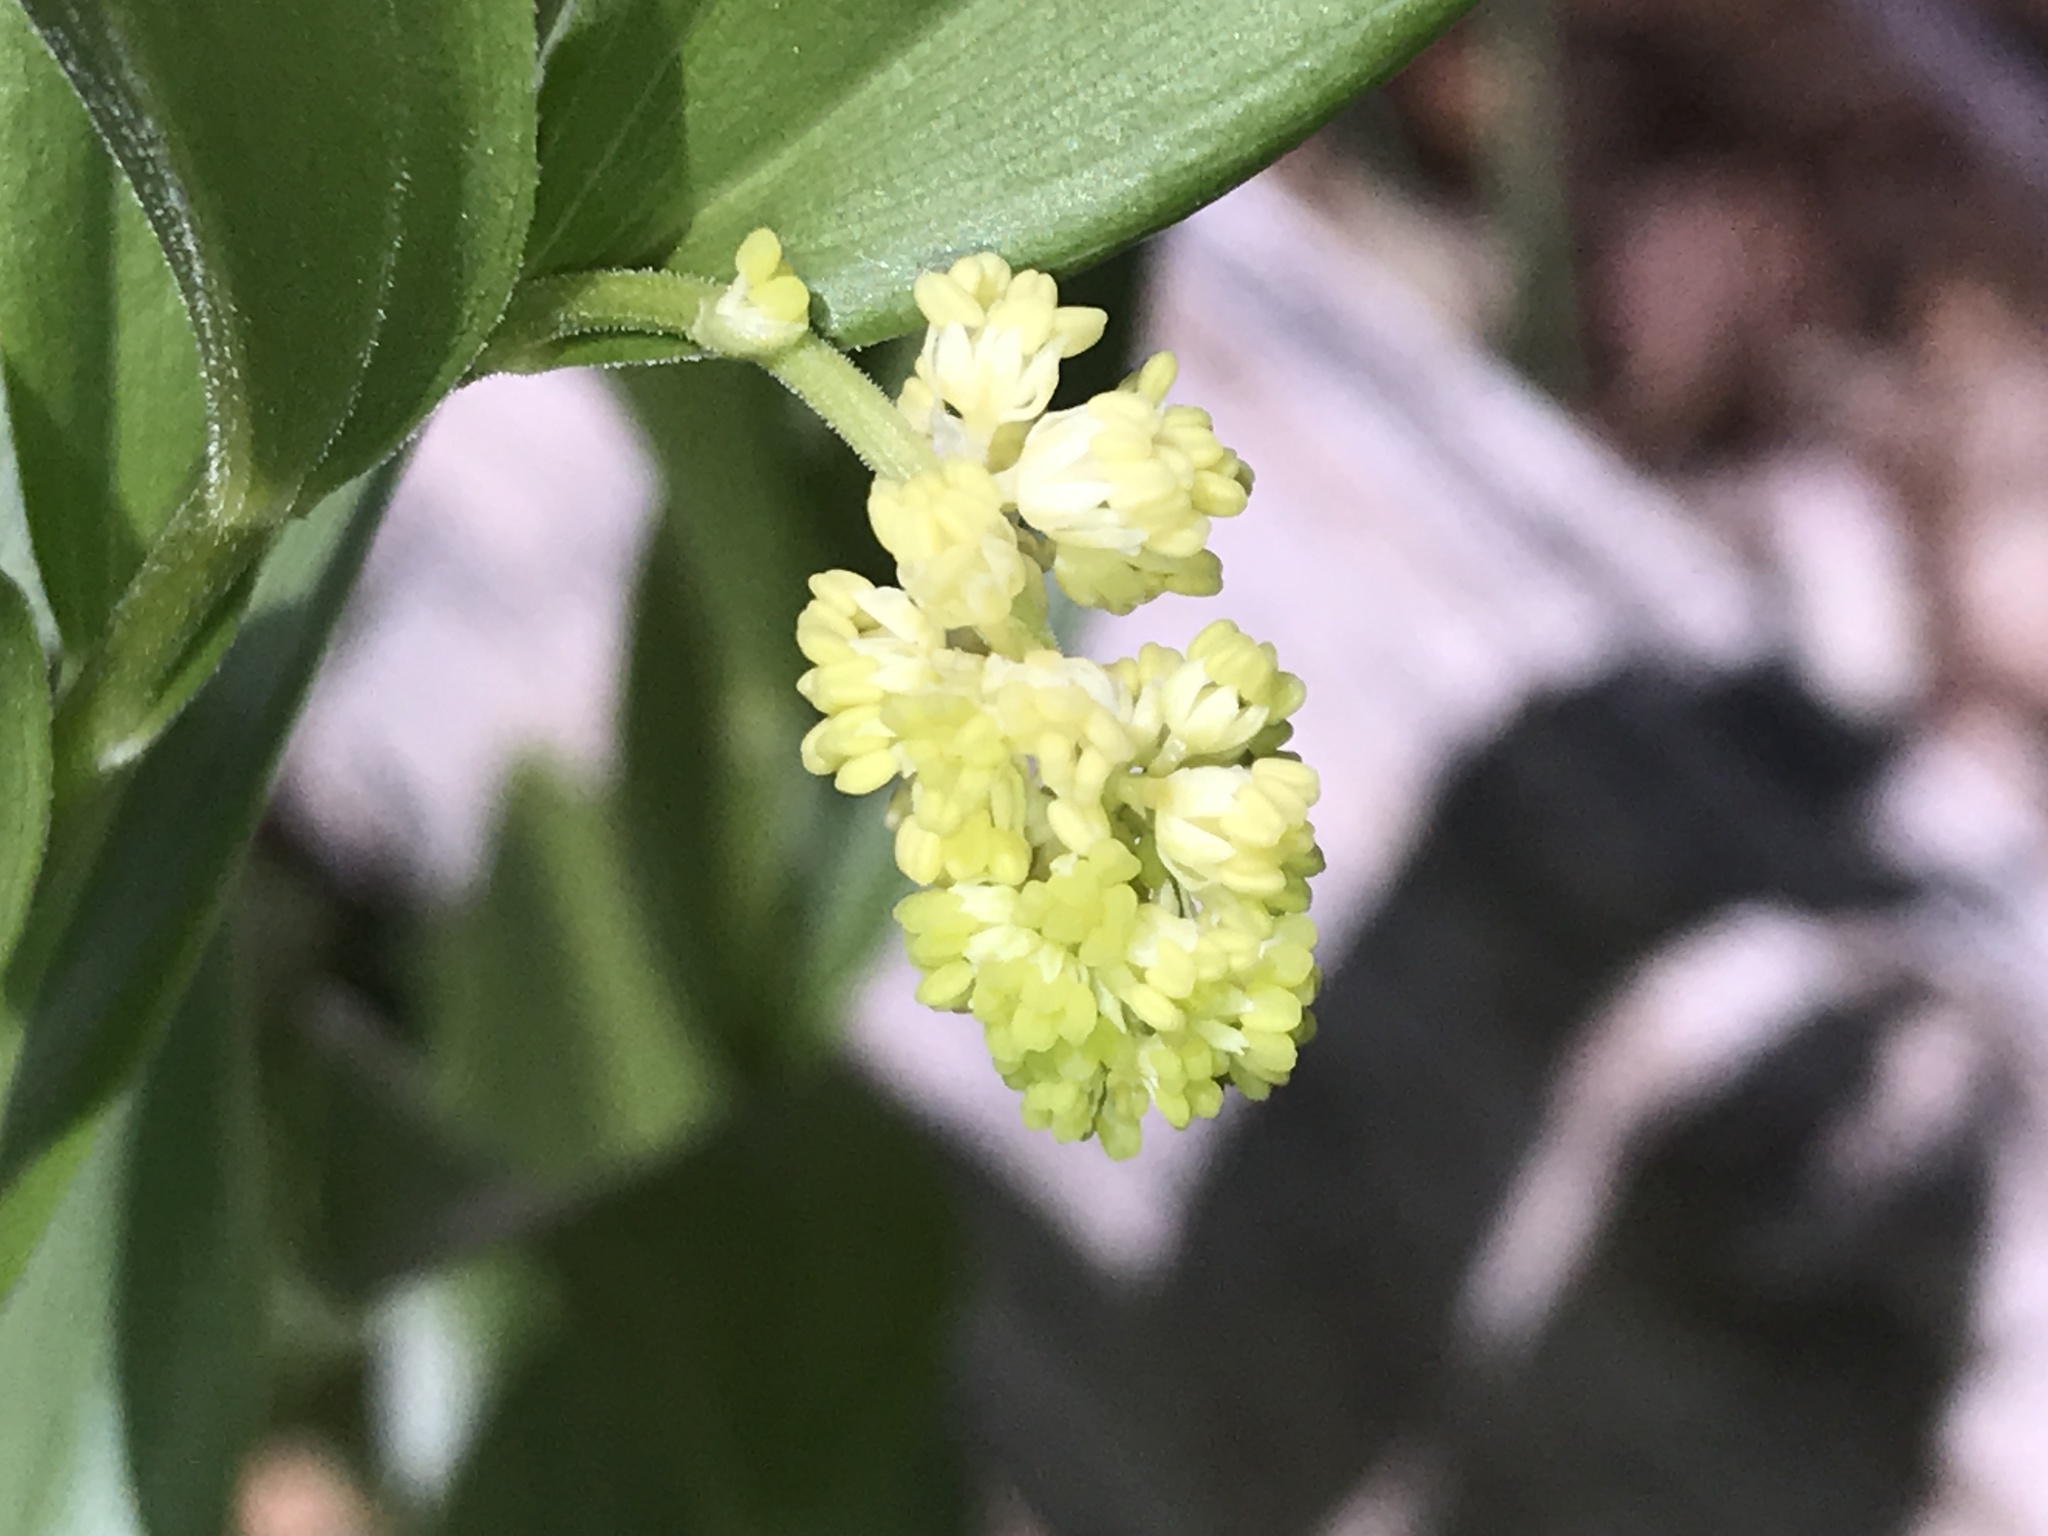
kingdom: Plantae
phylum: Tracheophyta
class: Liliopsida
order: Asparagales
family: Asparagaceae
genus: Maianthemum
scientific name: Maianthemum racemosum
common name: False spikenard
